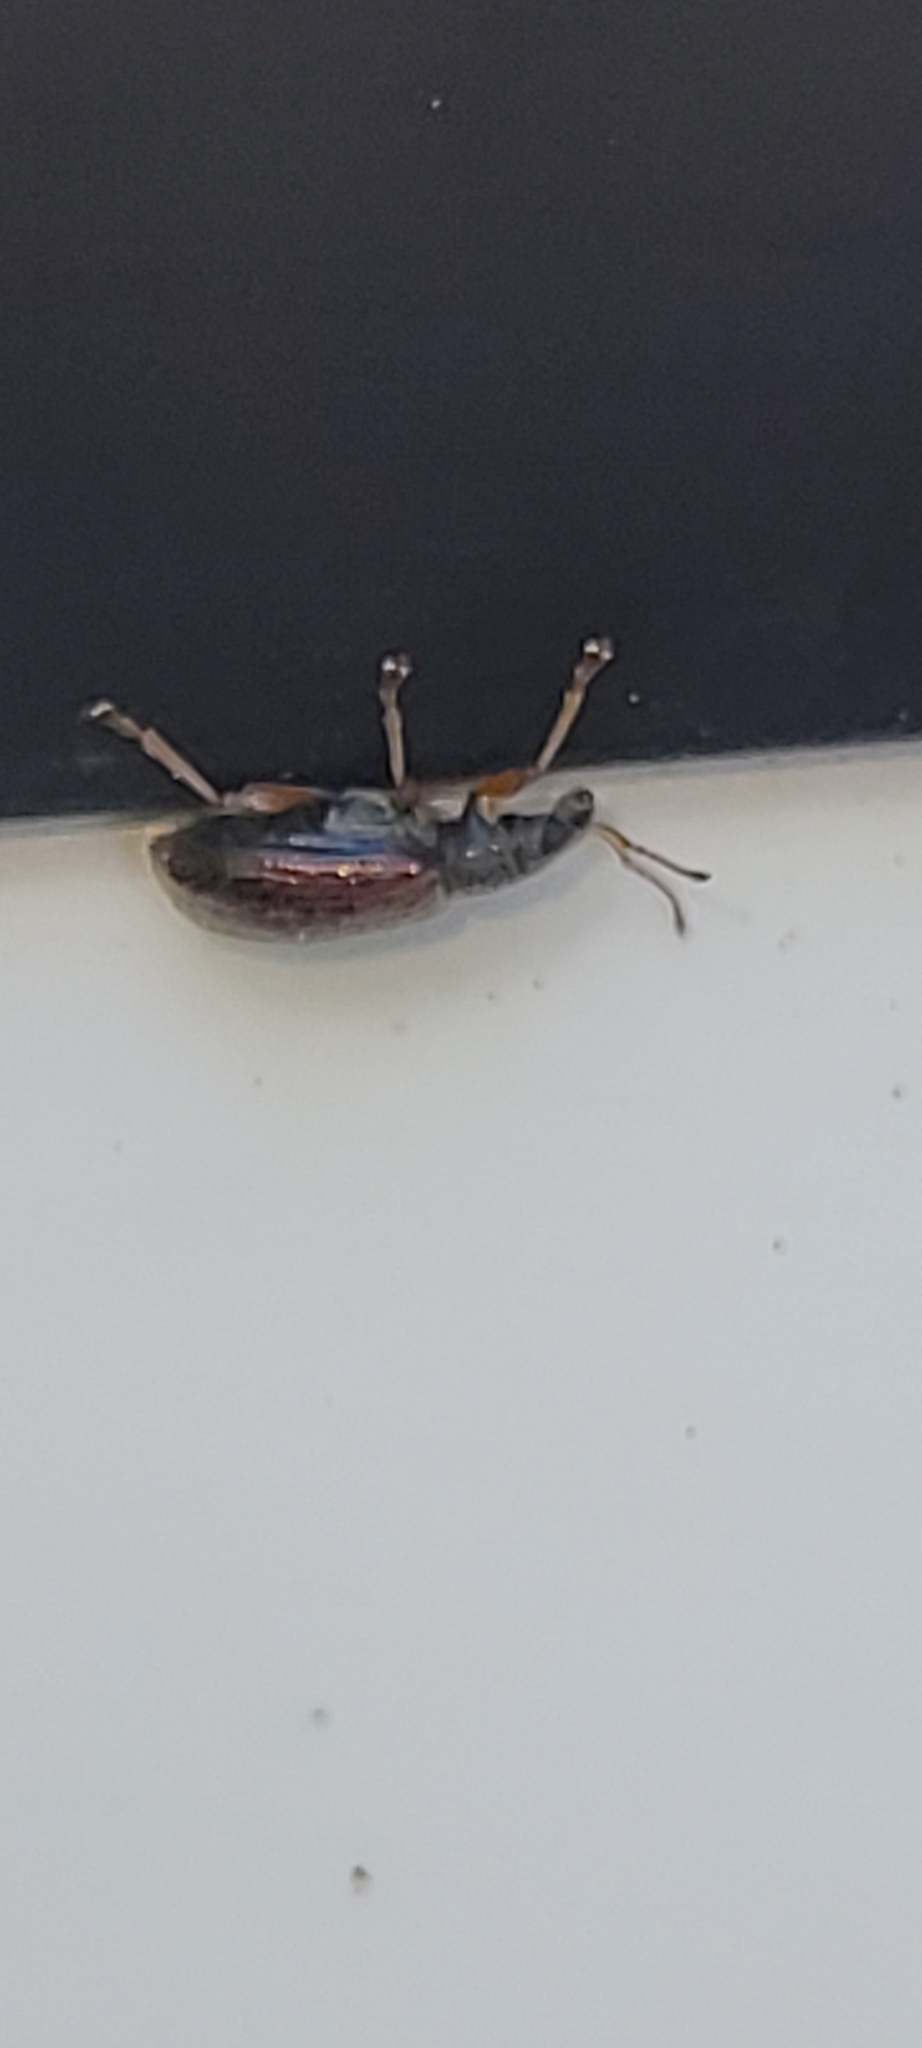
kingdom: Animalia
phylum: Arthropoda
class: Insecta
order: Coleoptera
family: Curculionidae
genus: Phyllobius
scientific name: Phyllobius oblongus
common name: Brown leaf weevil
